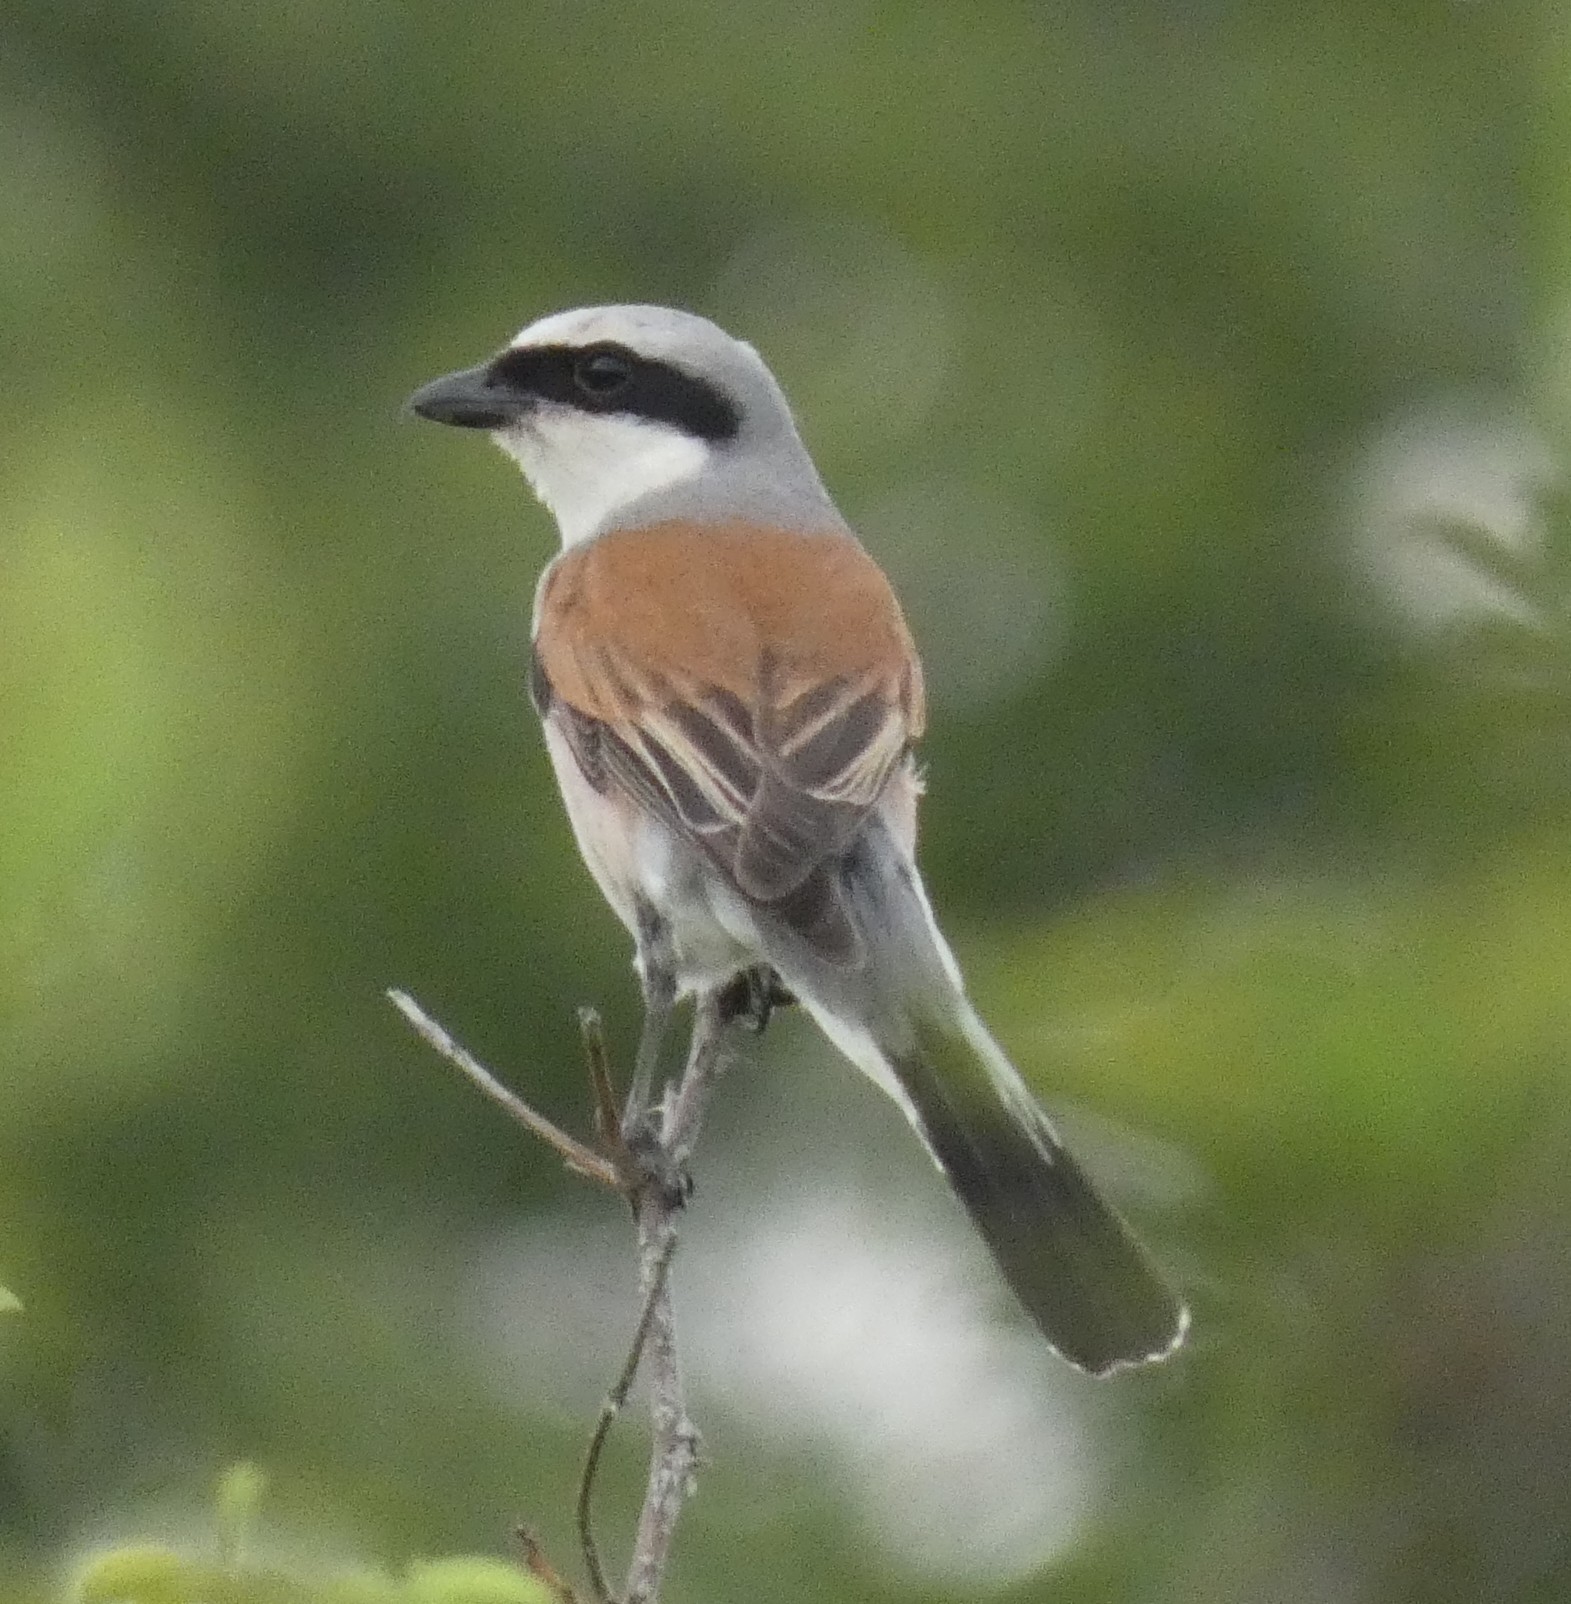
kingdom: Animalia
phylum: Chordata
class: Aves
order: Passeriformes
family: Laniidae
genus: Lanius
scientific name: Lanius collurio
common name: Red-backed shrike
